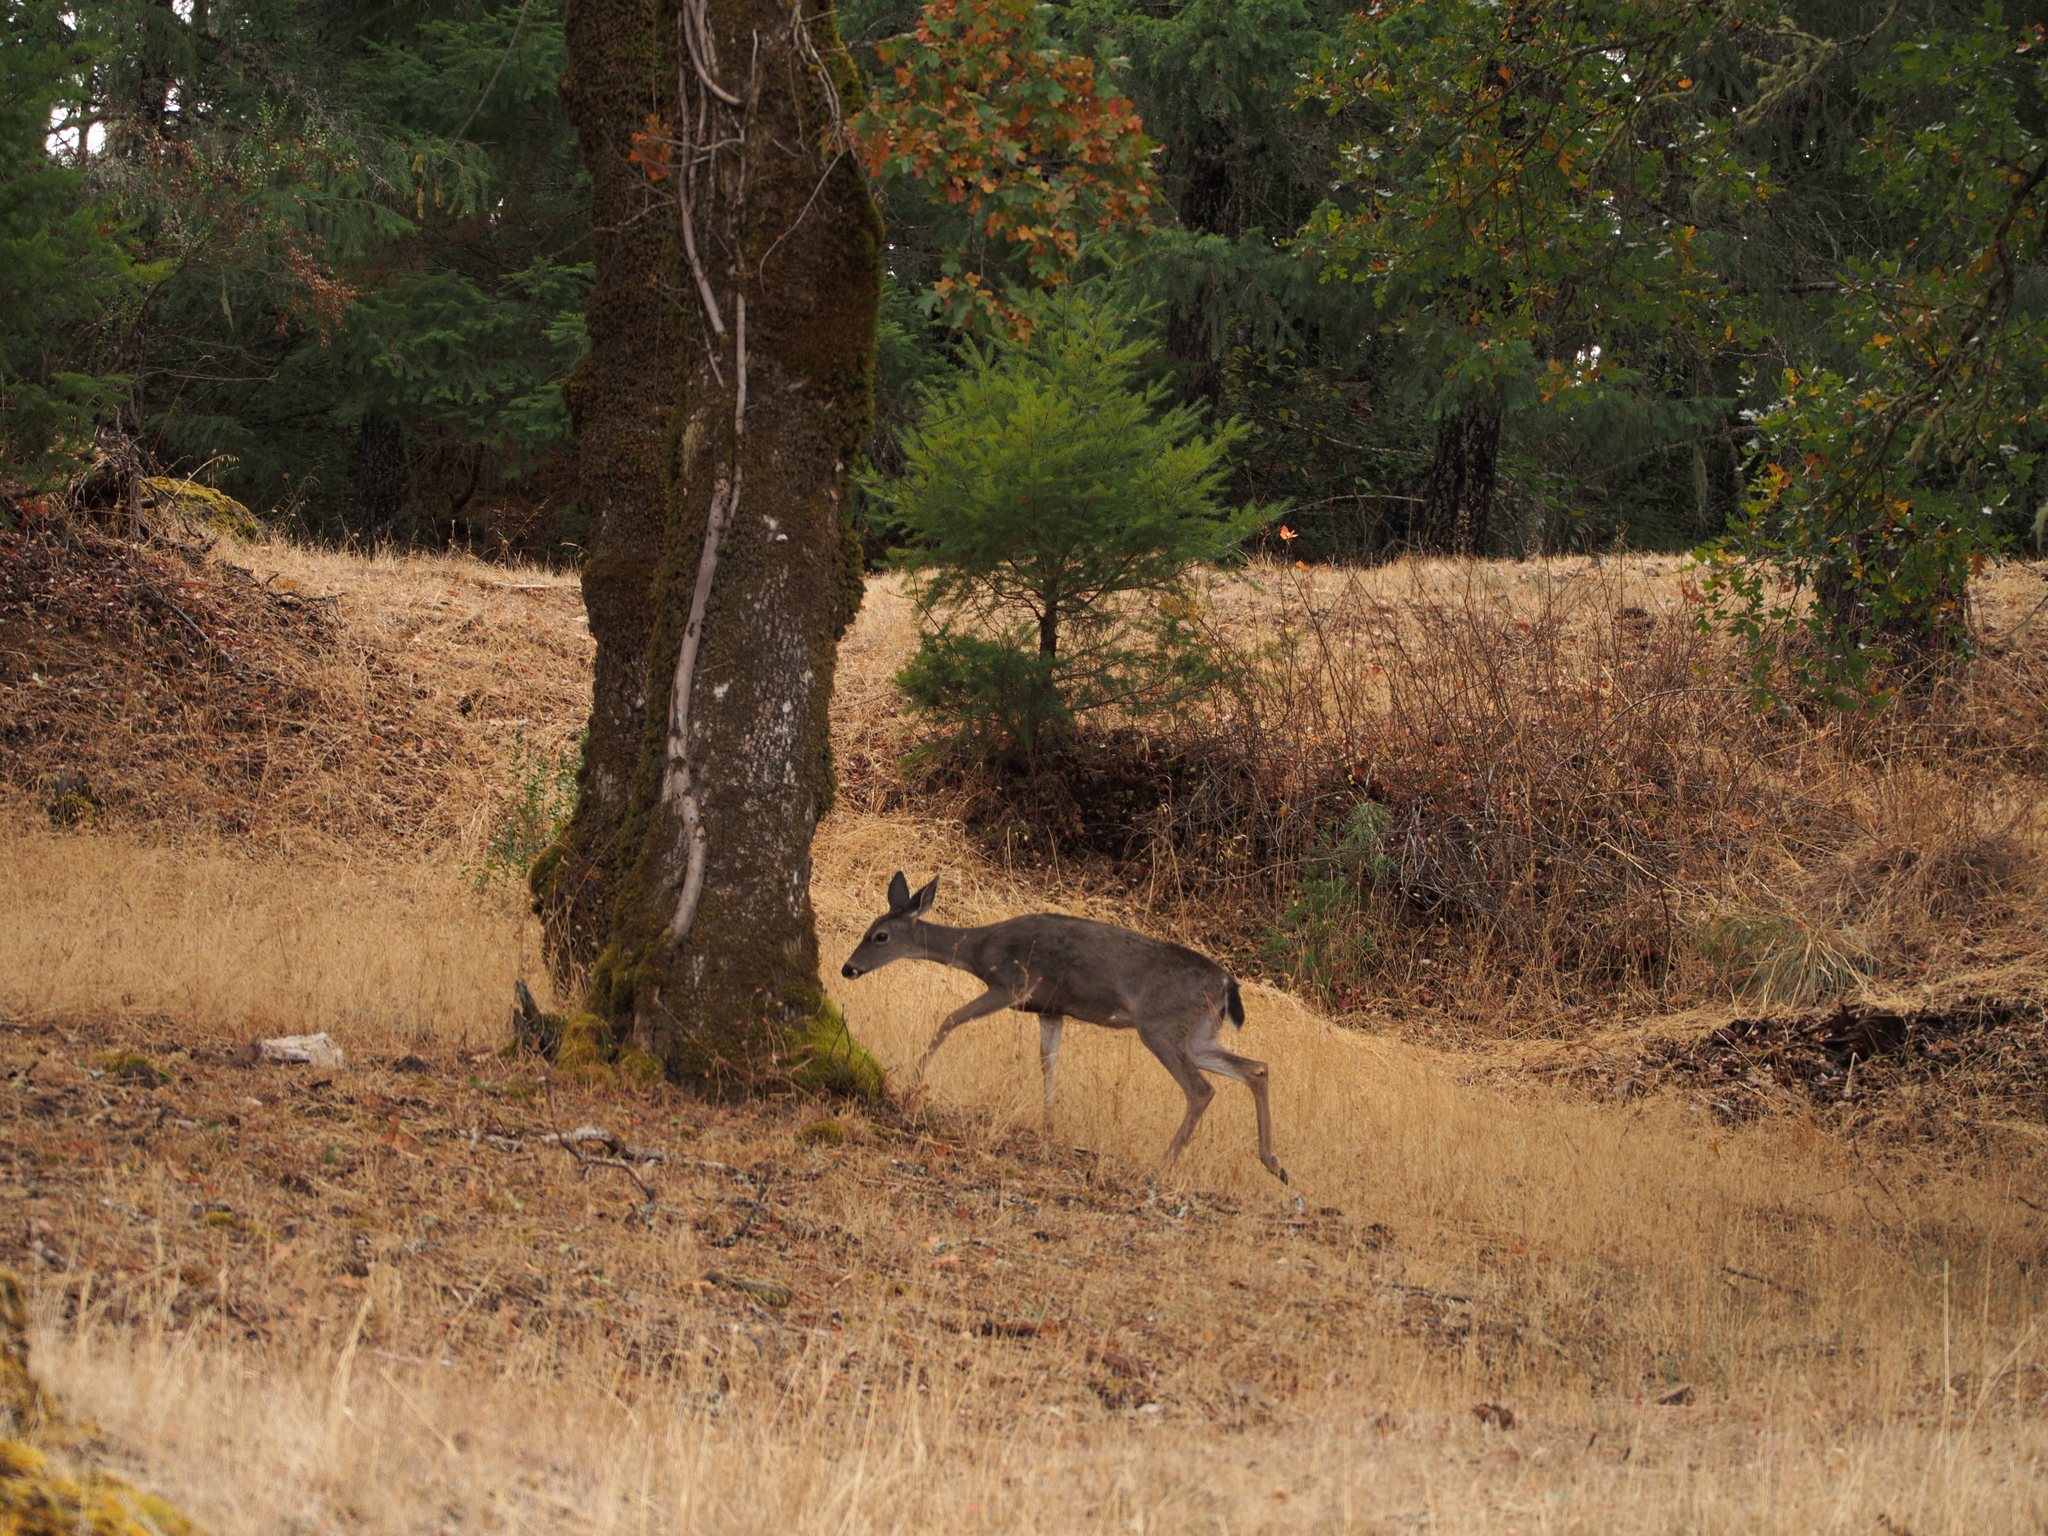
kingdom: Animalia
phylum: Chordata
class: Mammalia
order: Artiodactyla
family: Cervidae
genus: Odocoileus
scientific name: Odocoileus hemionus
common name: Mule deer
